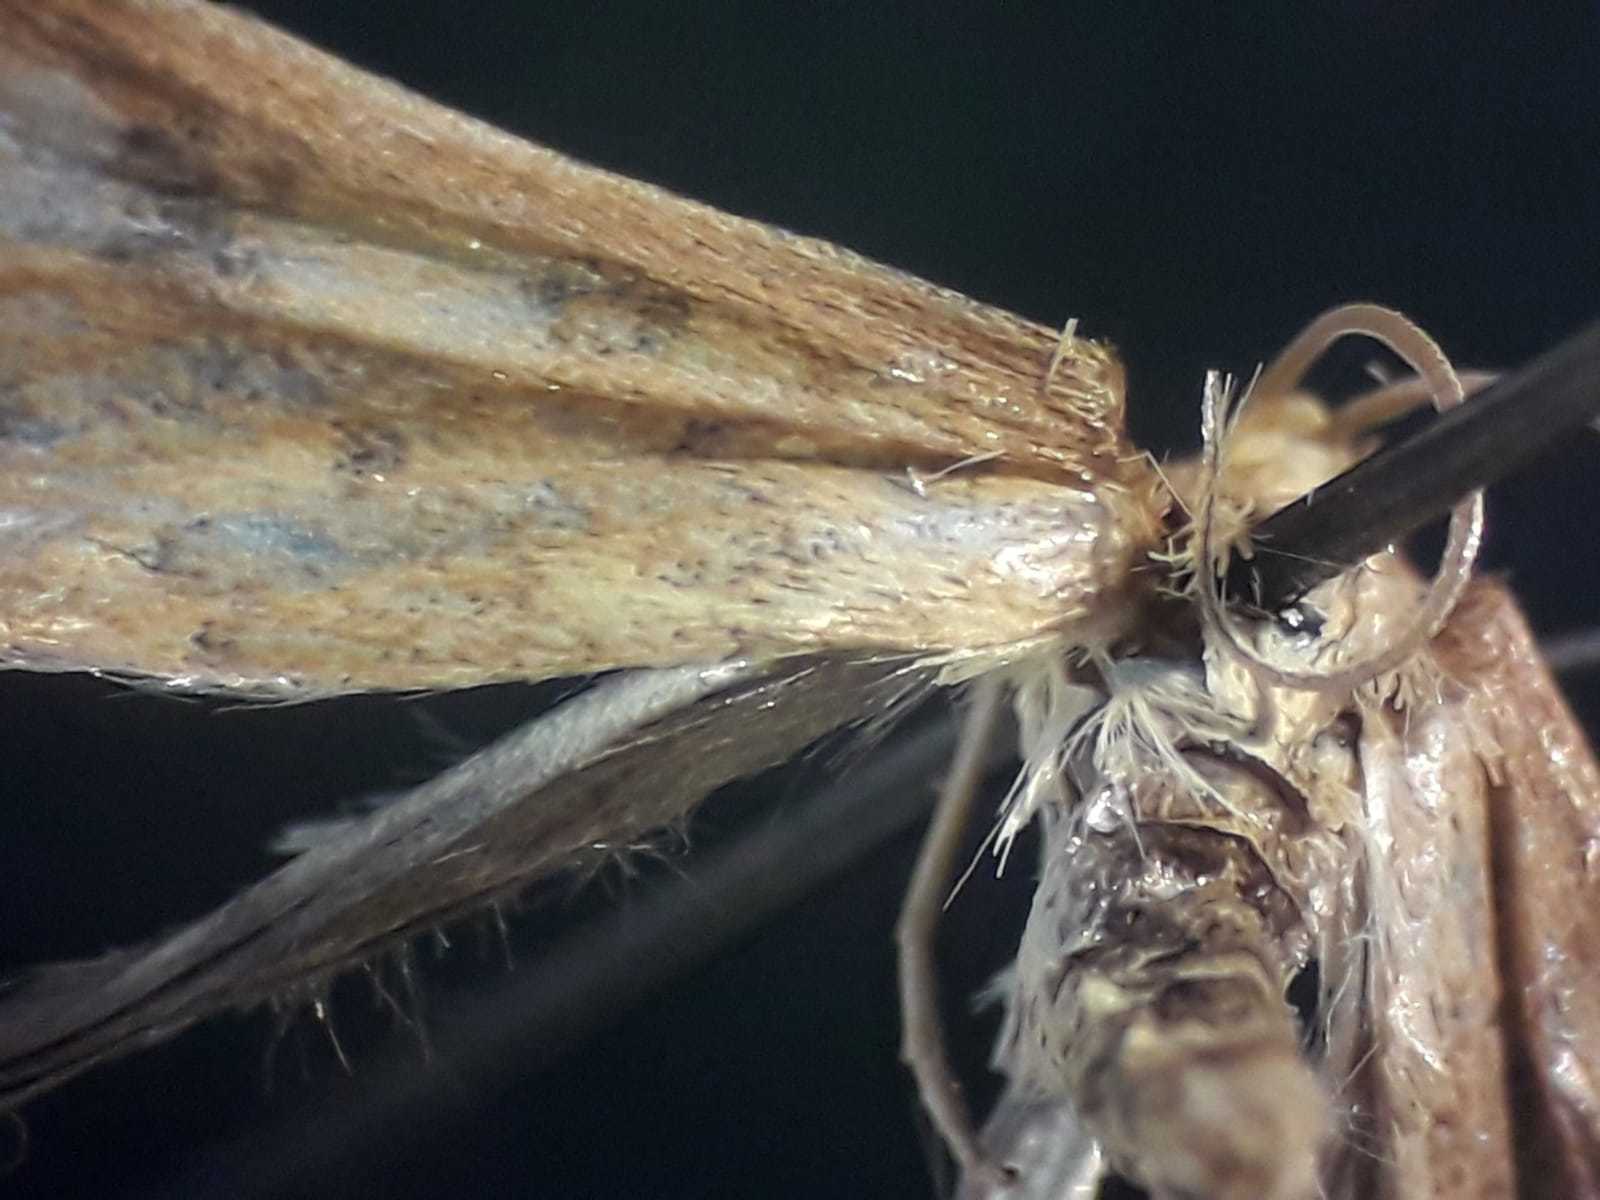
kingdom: Animalia
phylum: Arthropoda
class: Insecta
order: Lepidoptera
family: Crambidae
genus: Udea
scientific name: Udea ferrugalis
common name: Rusty dot
